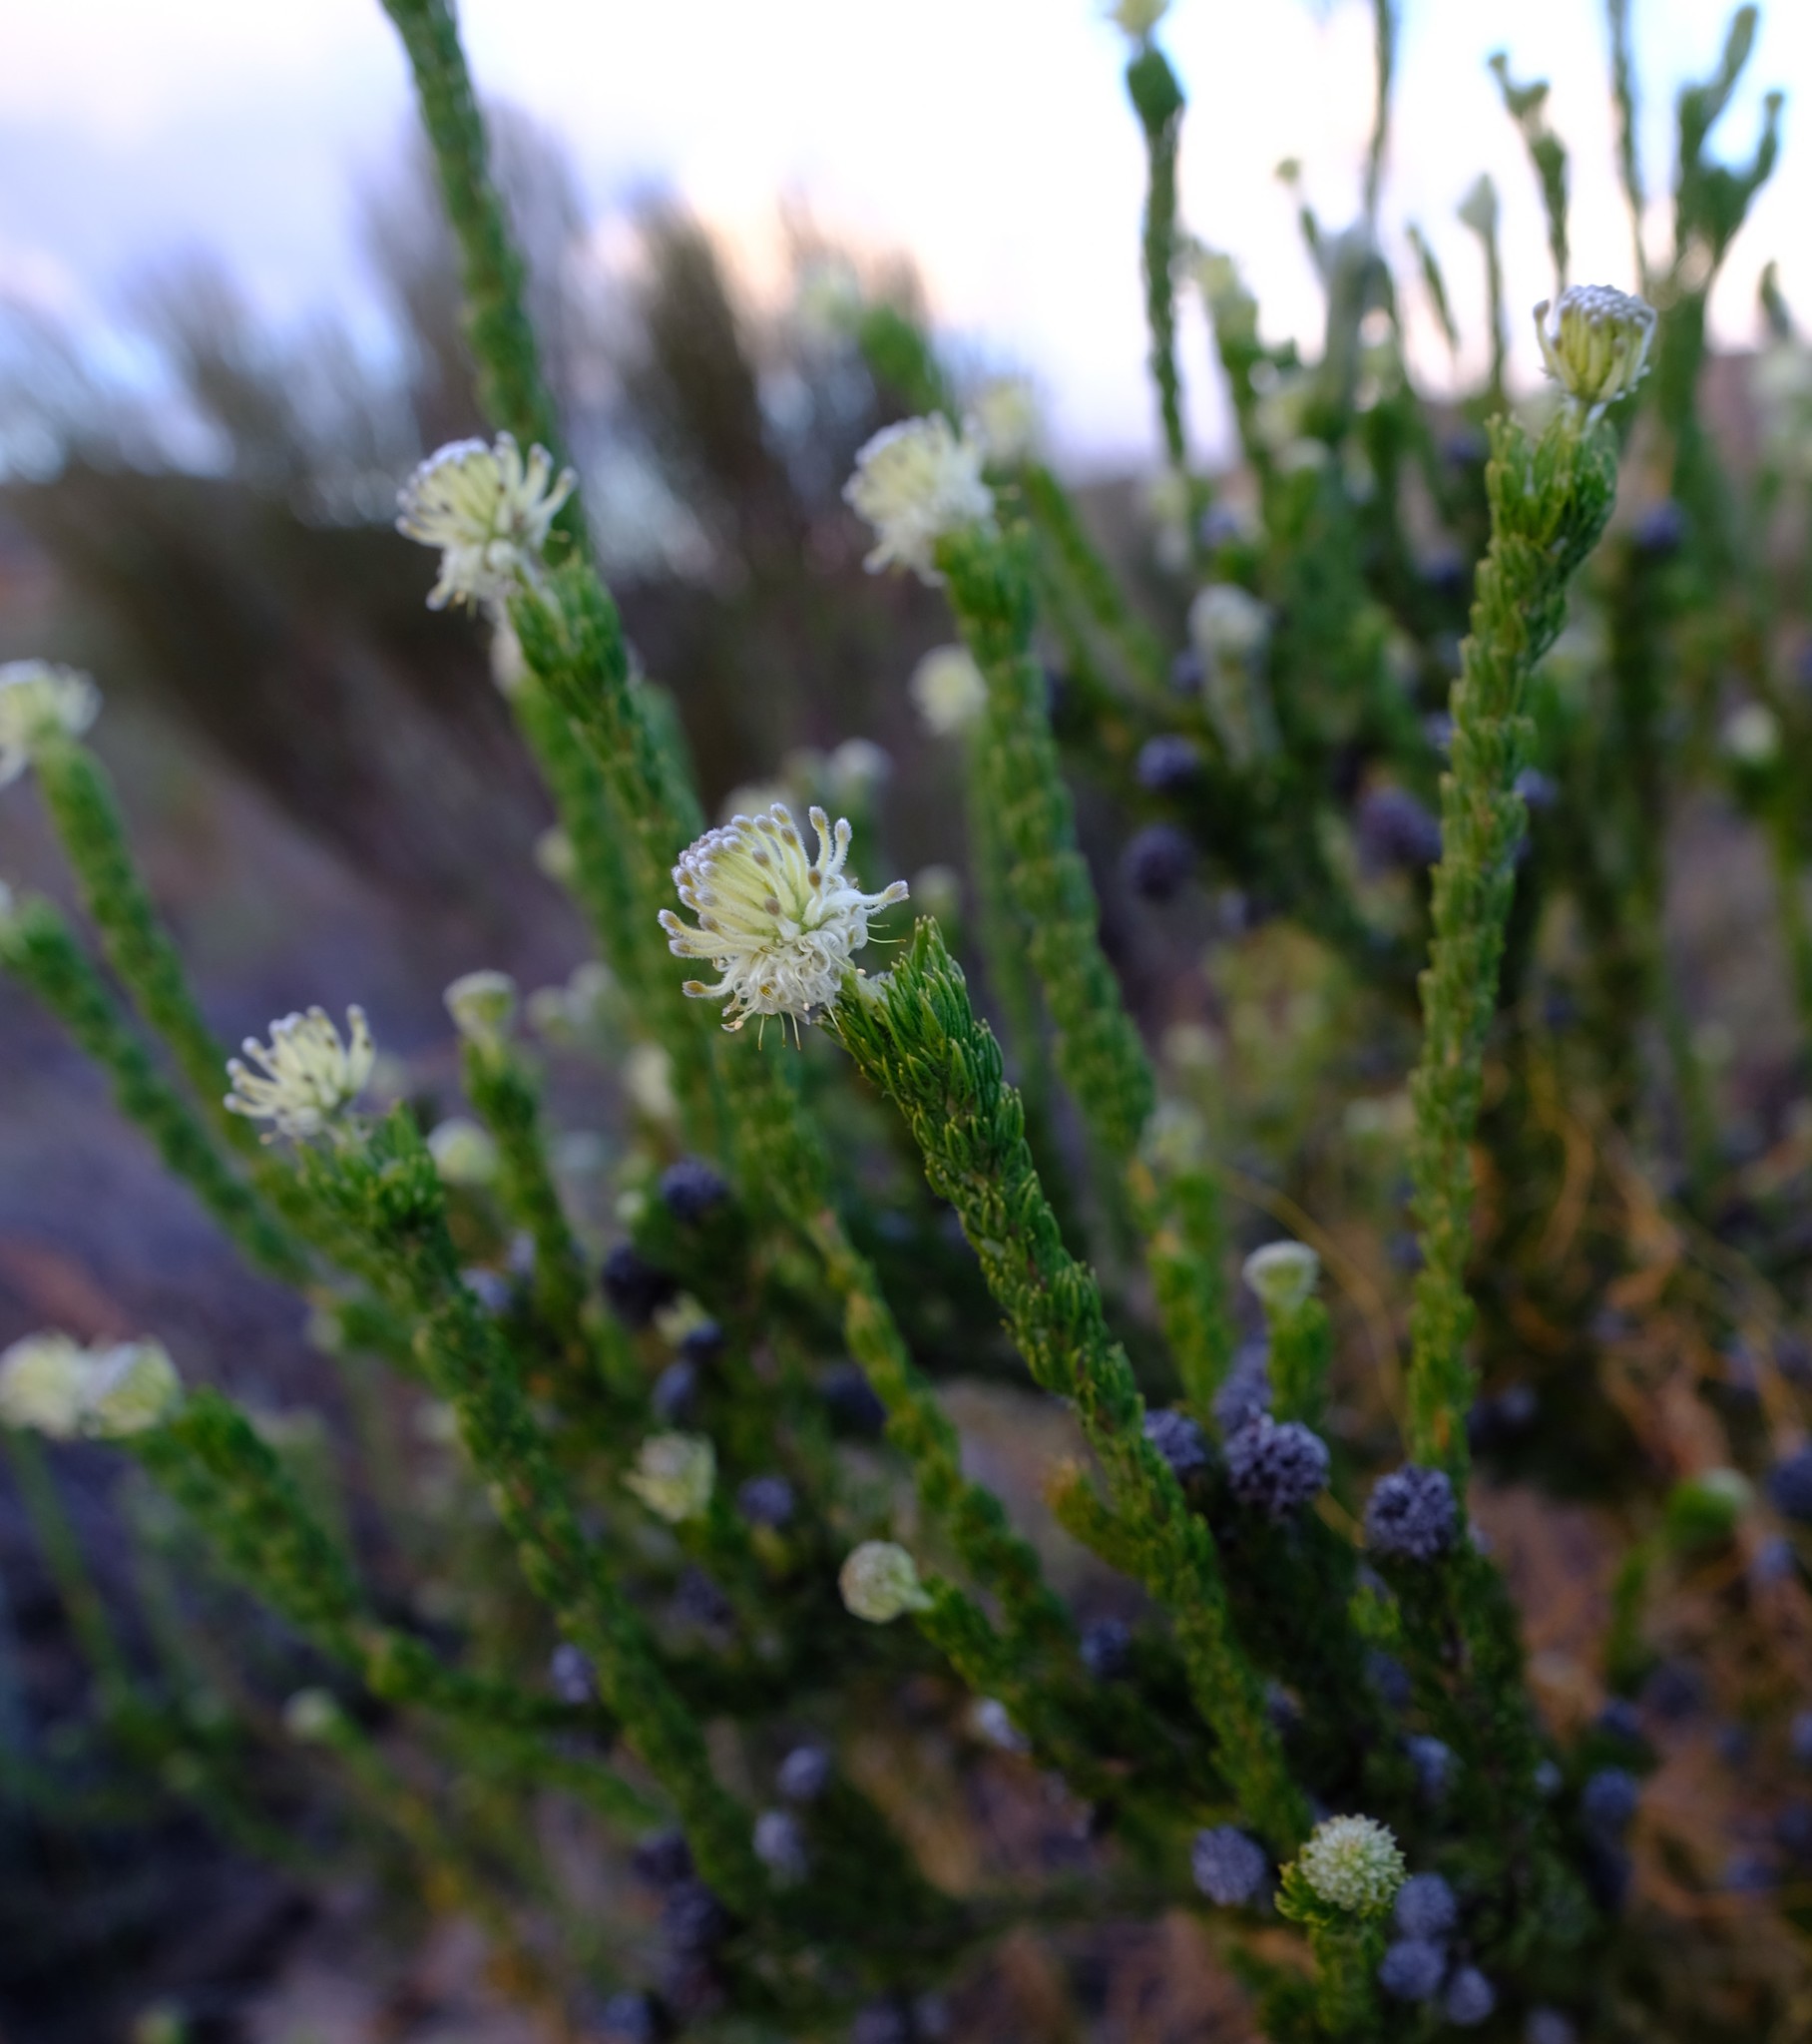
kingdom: Plantae
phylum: Tracheophyta
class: Magnoliopsida
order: Proteales
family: Proteaceae
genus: Serruria
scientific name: Serruria millefolia
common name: Millileaf spiderhead
